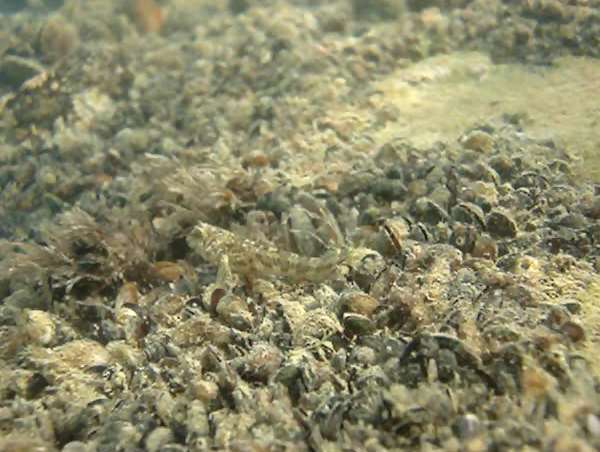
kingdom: Animalia
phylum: Chordata
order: Perciformes
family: Blenniidae
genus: Aidablennius
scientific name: Aidablennius sphynx
